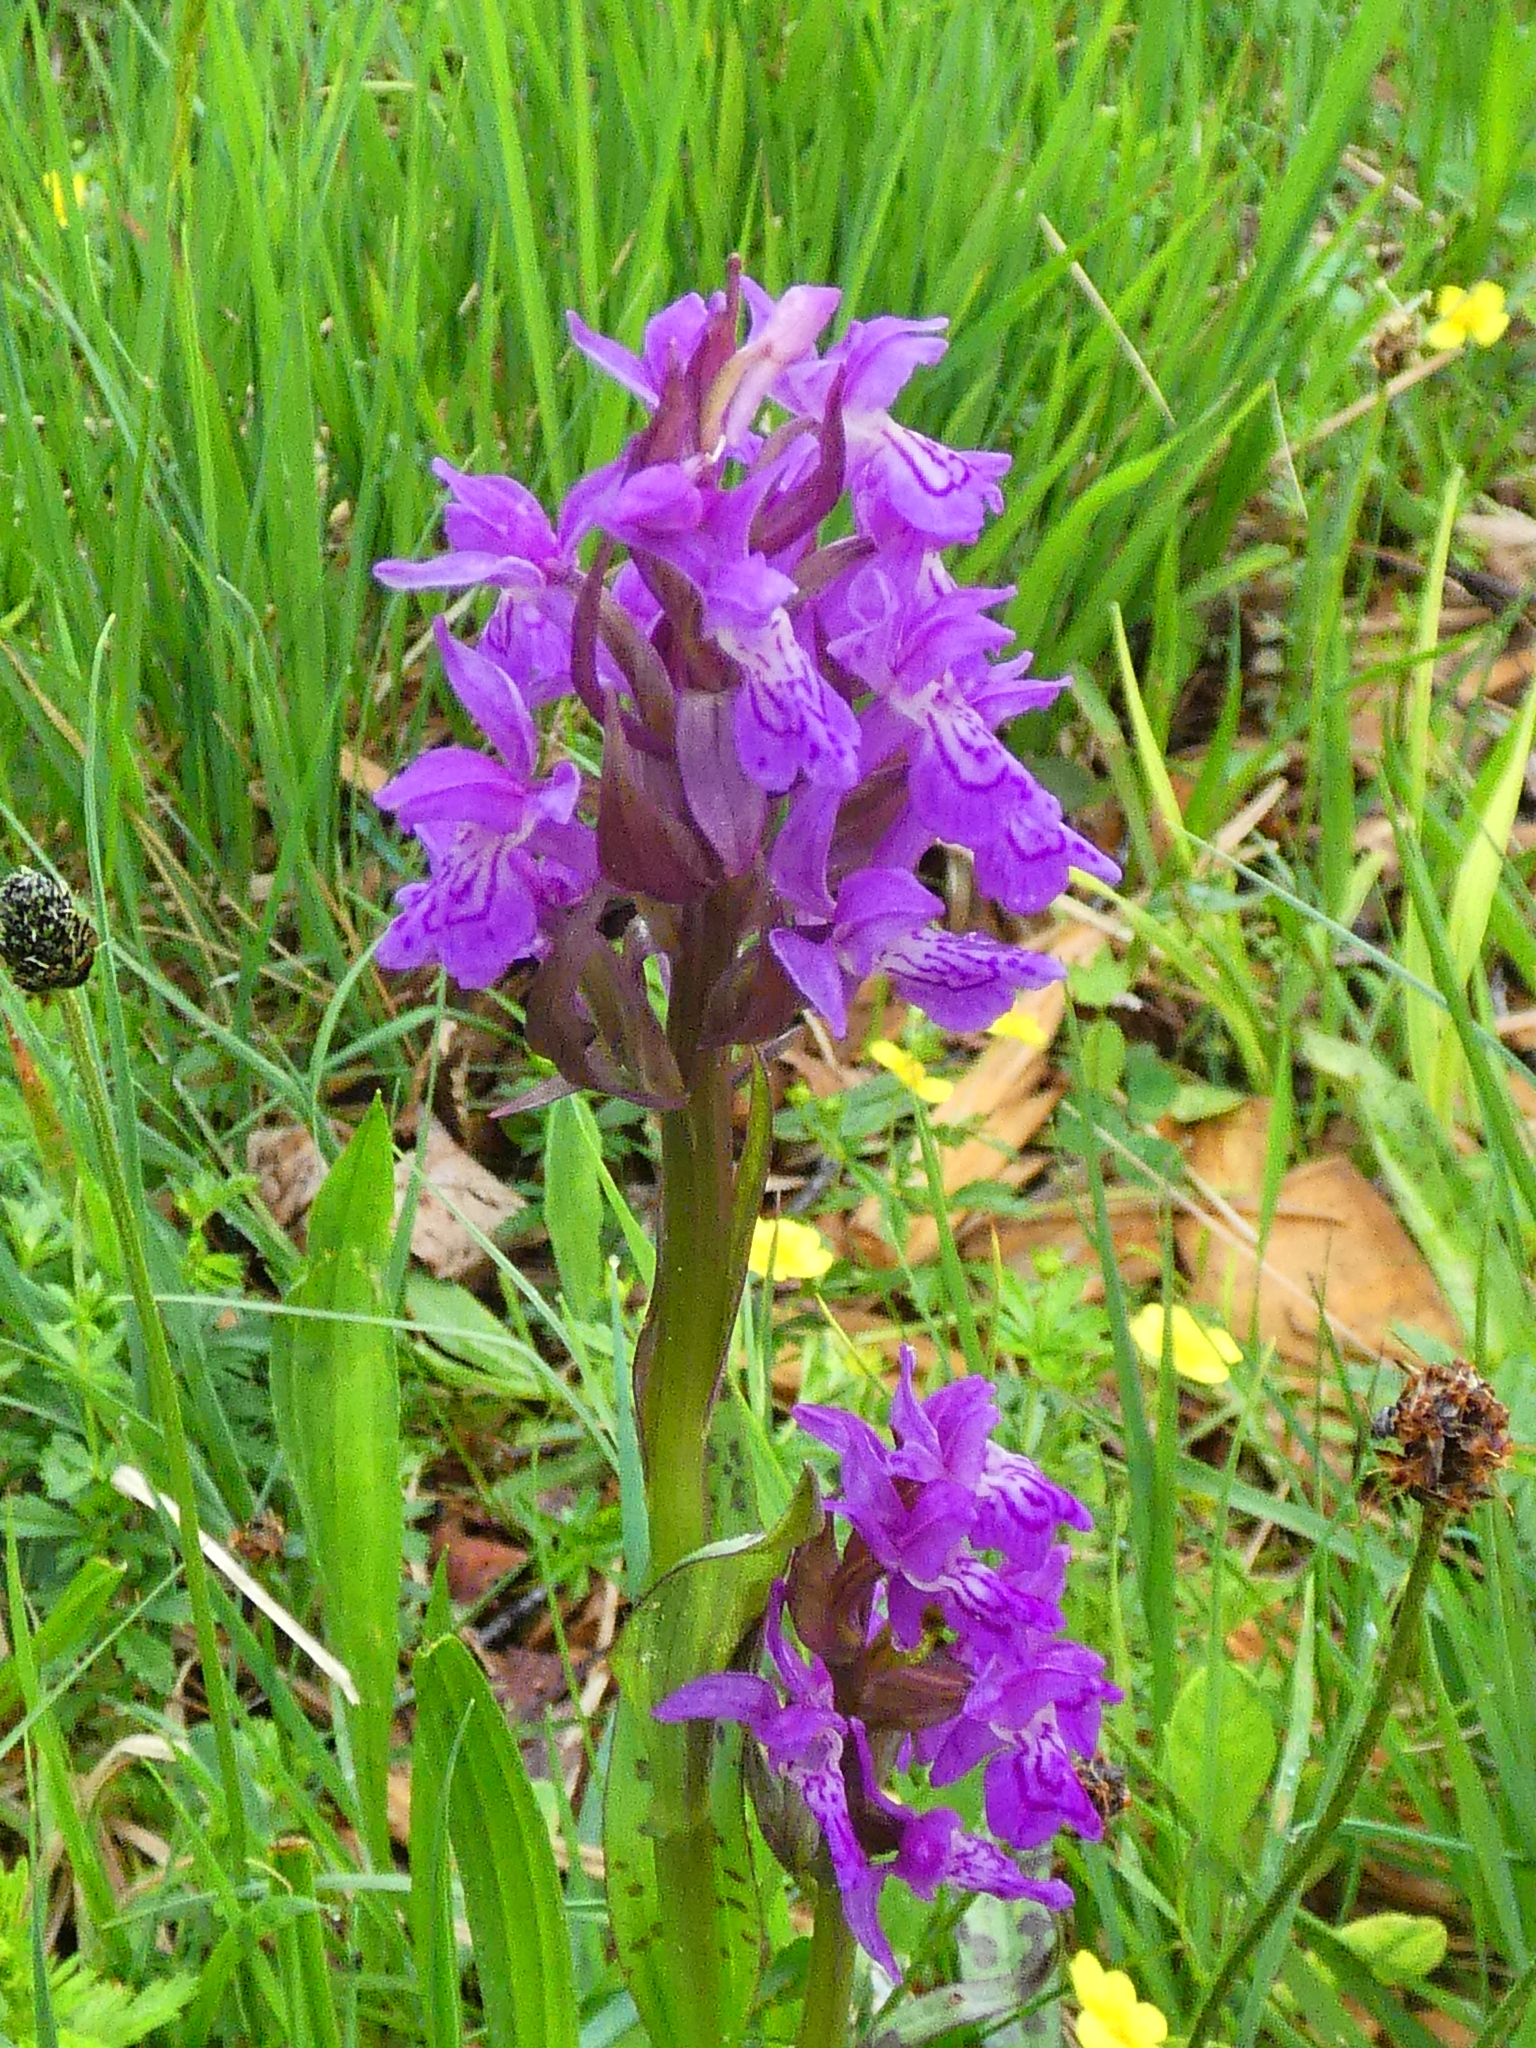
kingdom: Plantae
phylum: Tracheophyta
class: Liliopsida
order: Asparagales
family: Orchidaceae
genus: Dactylorhiza
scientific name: Dactylorhiza majalis
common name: Marsh orchid
